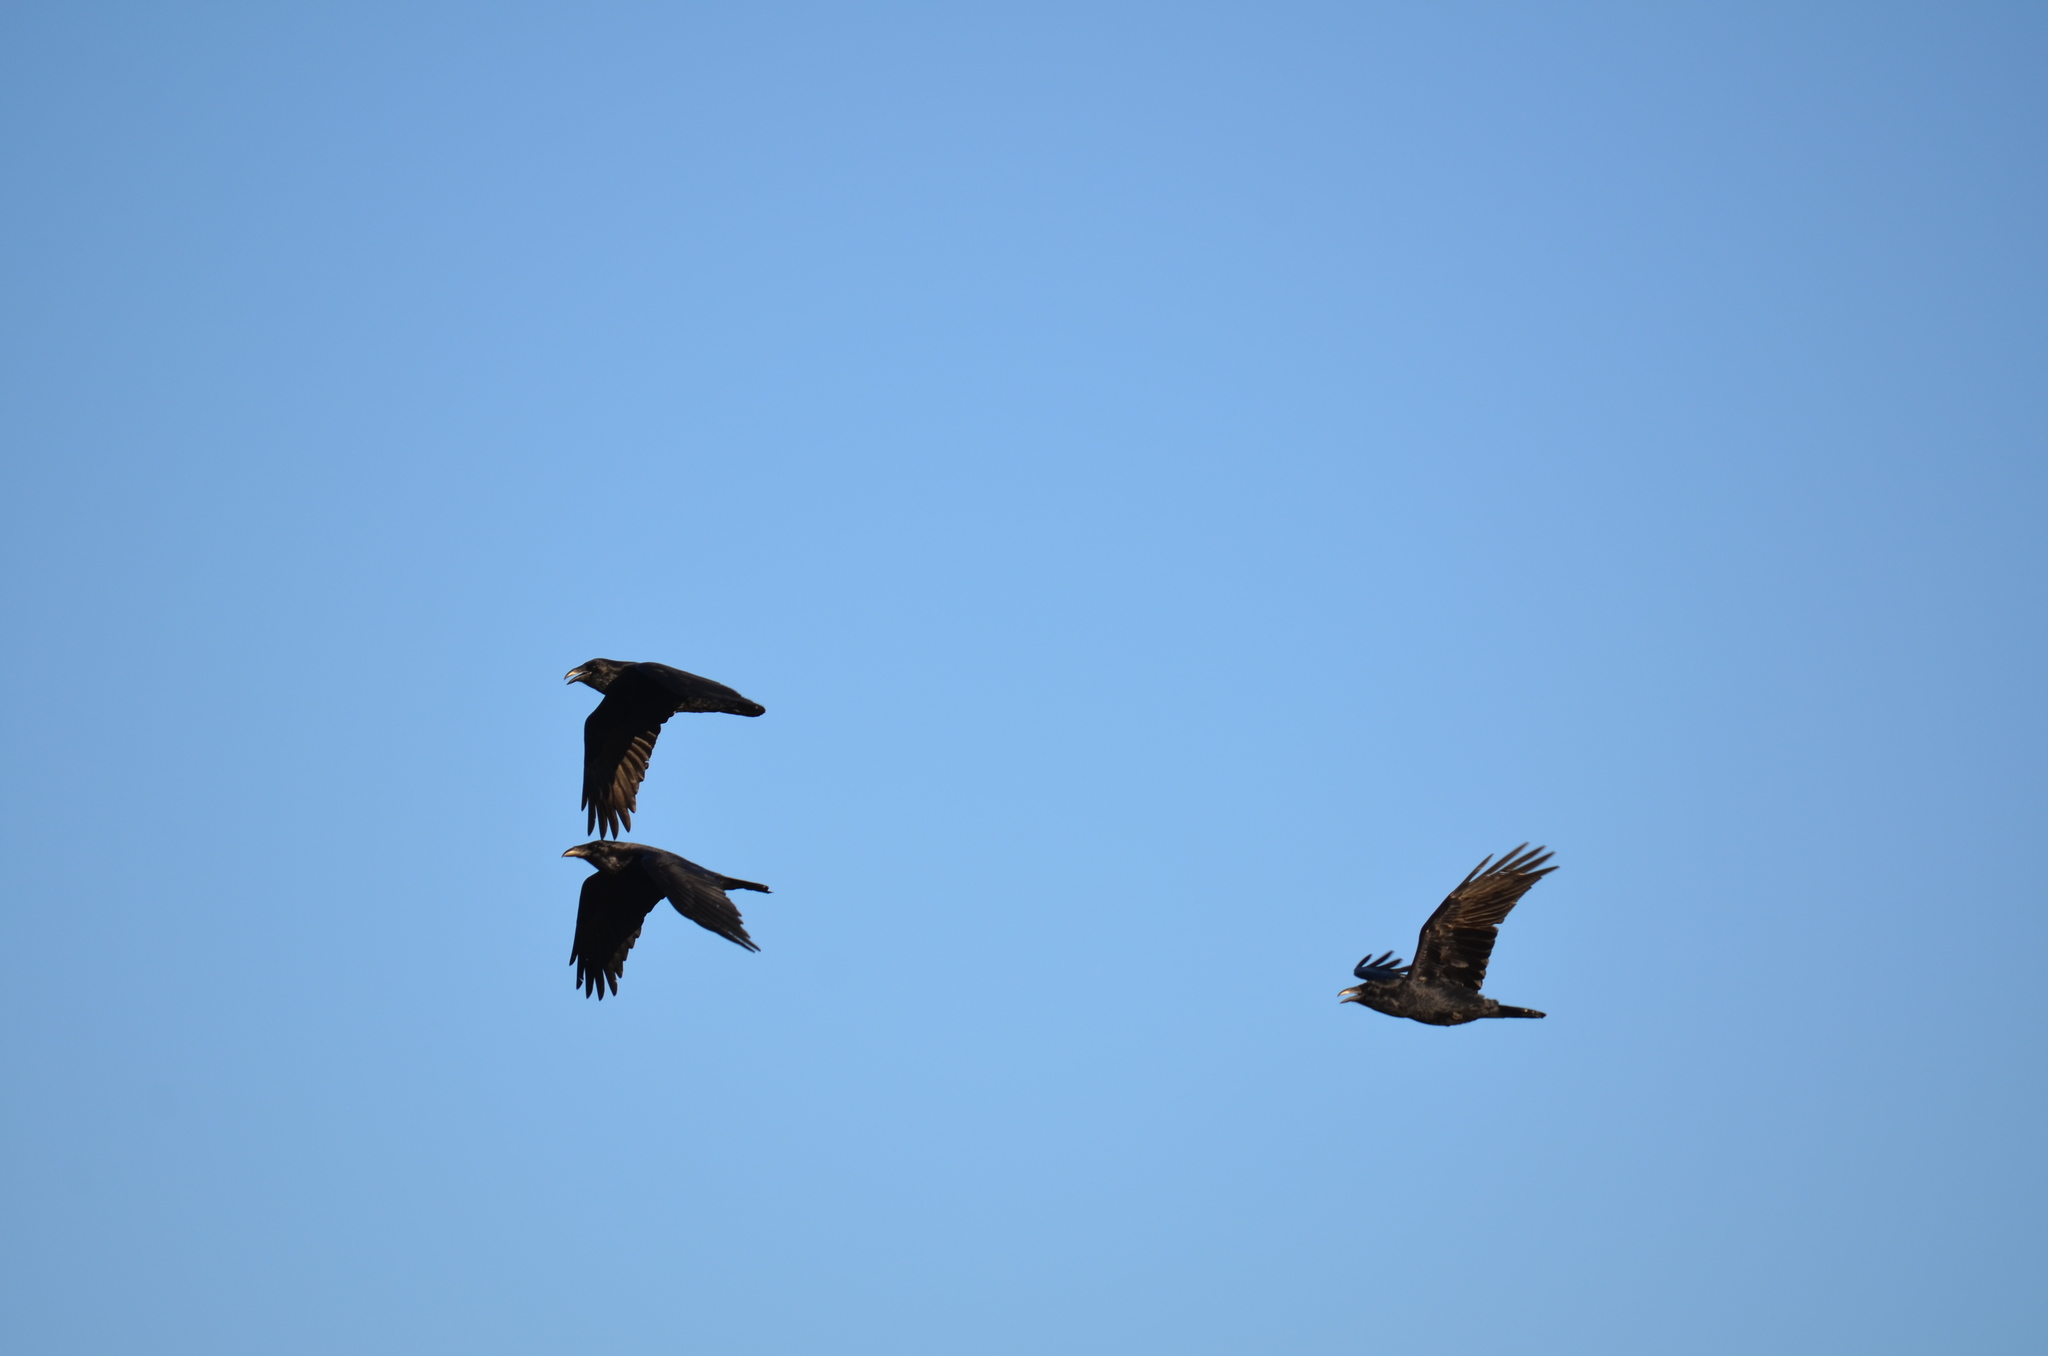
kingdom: Animalia
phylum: Chordata
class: Aves
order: Passeriformes
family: Corvidae
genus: Corvus
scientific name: Corvus corax
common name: Common raven
